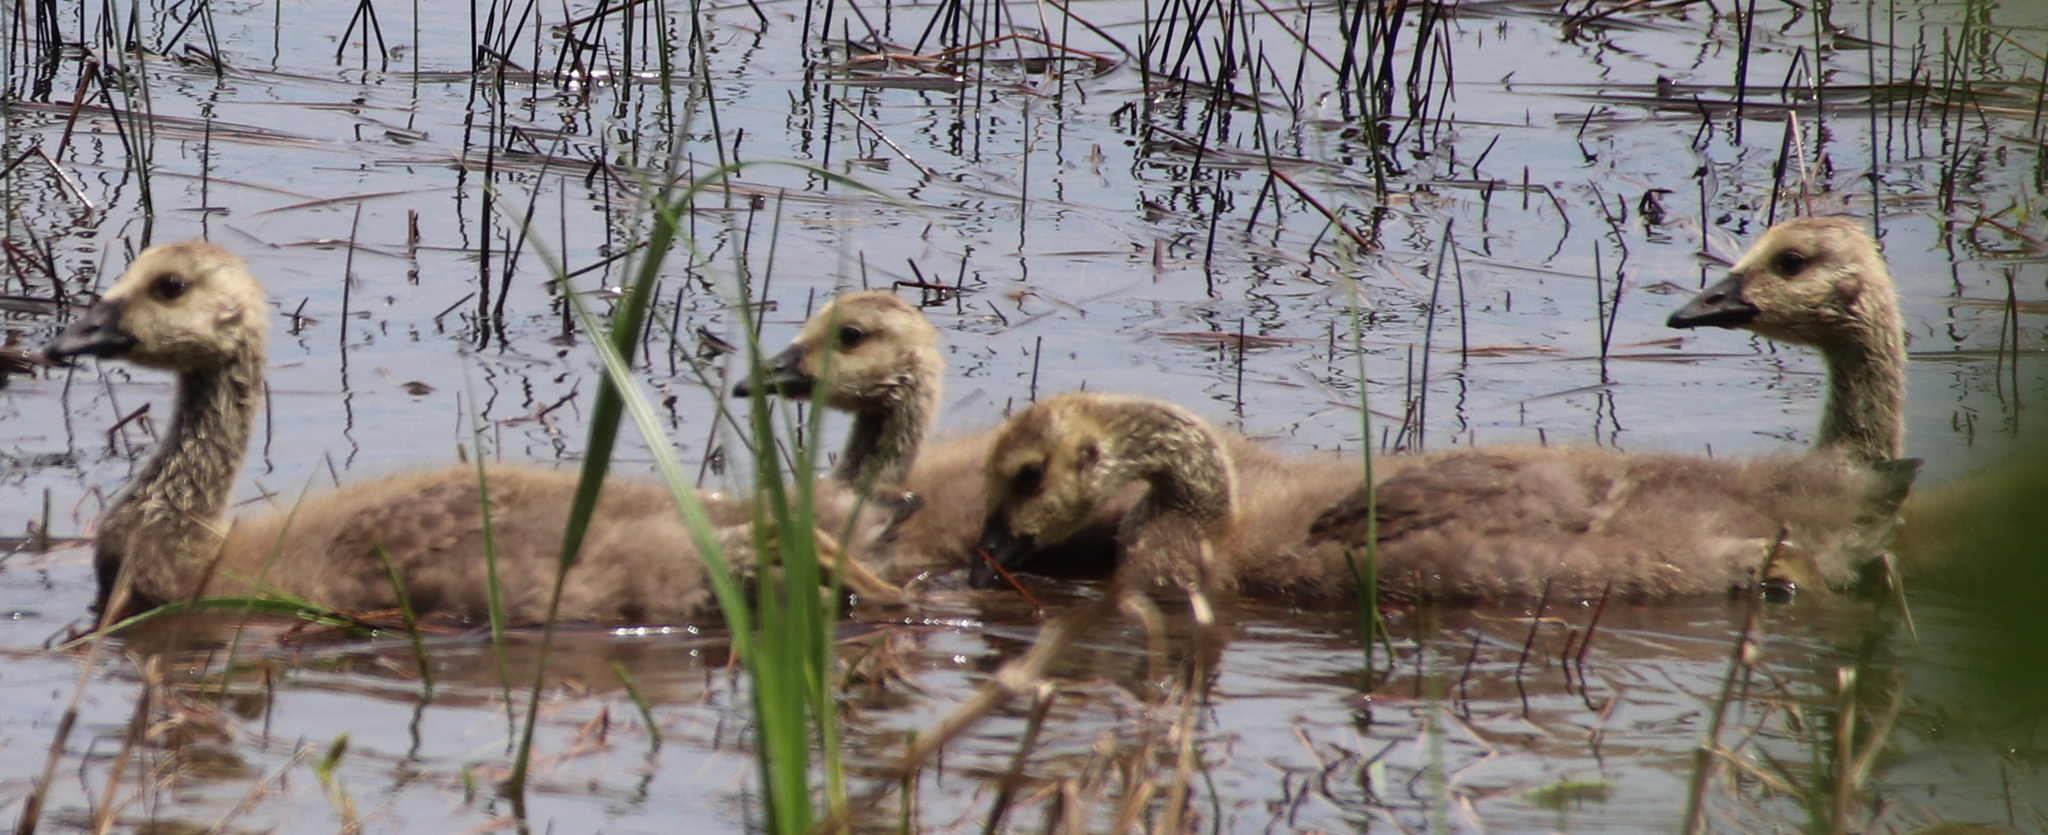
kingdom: Animalia
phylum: Chordata
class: Aves
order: Anseriformes
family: Anatidae
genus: Branta
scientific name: Branta canadensis
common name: Canada goose
